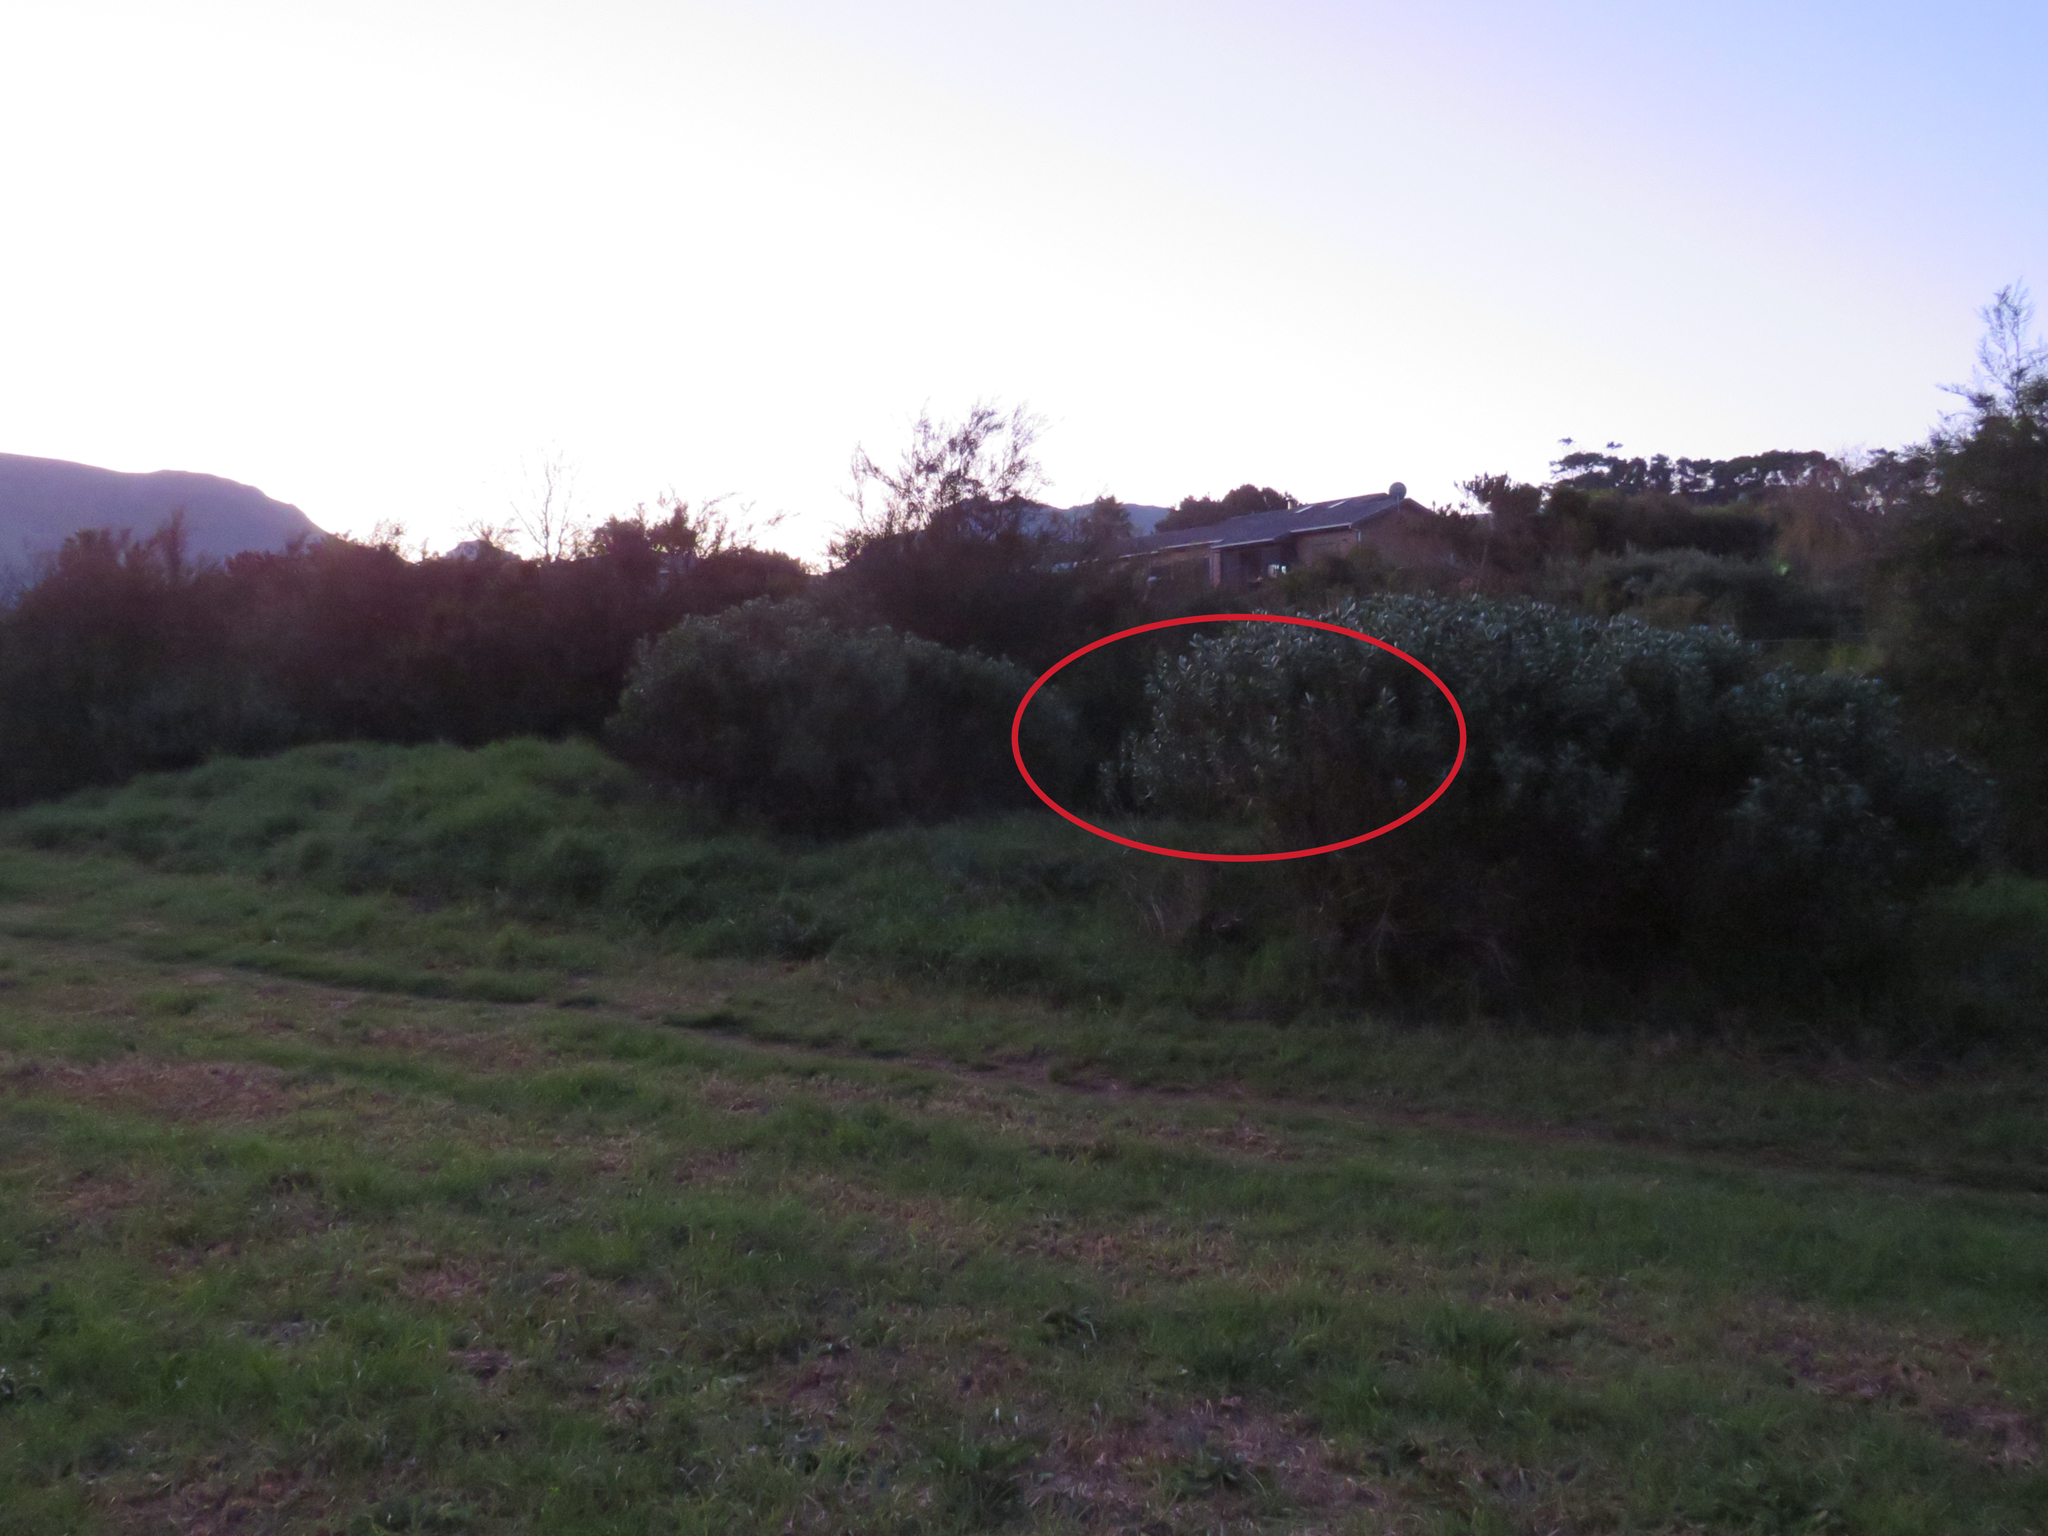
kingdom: Plantae
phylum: Tracheophyta
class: Magnoliopsida
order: Fabales
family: Fabaceae
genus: Psoralea
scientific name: Psoralea fascicularis
